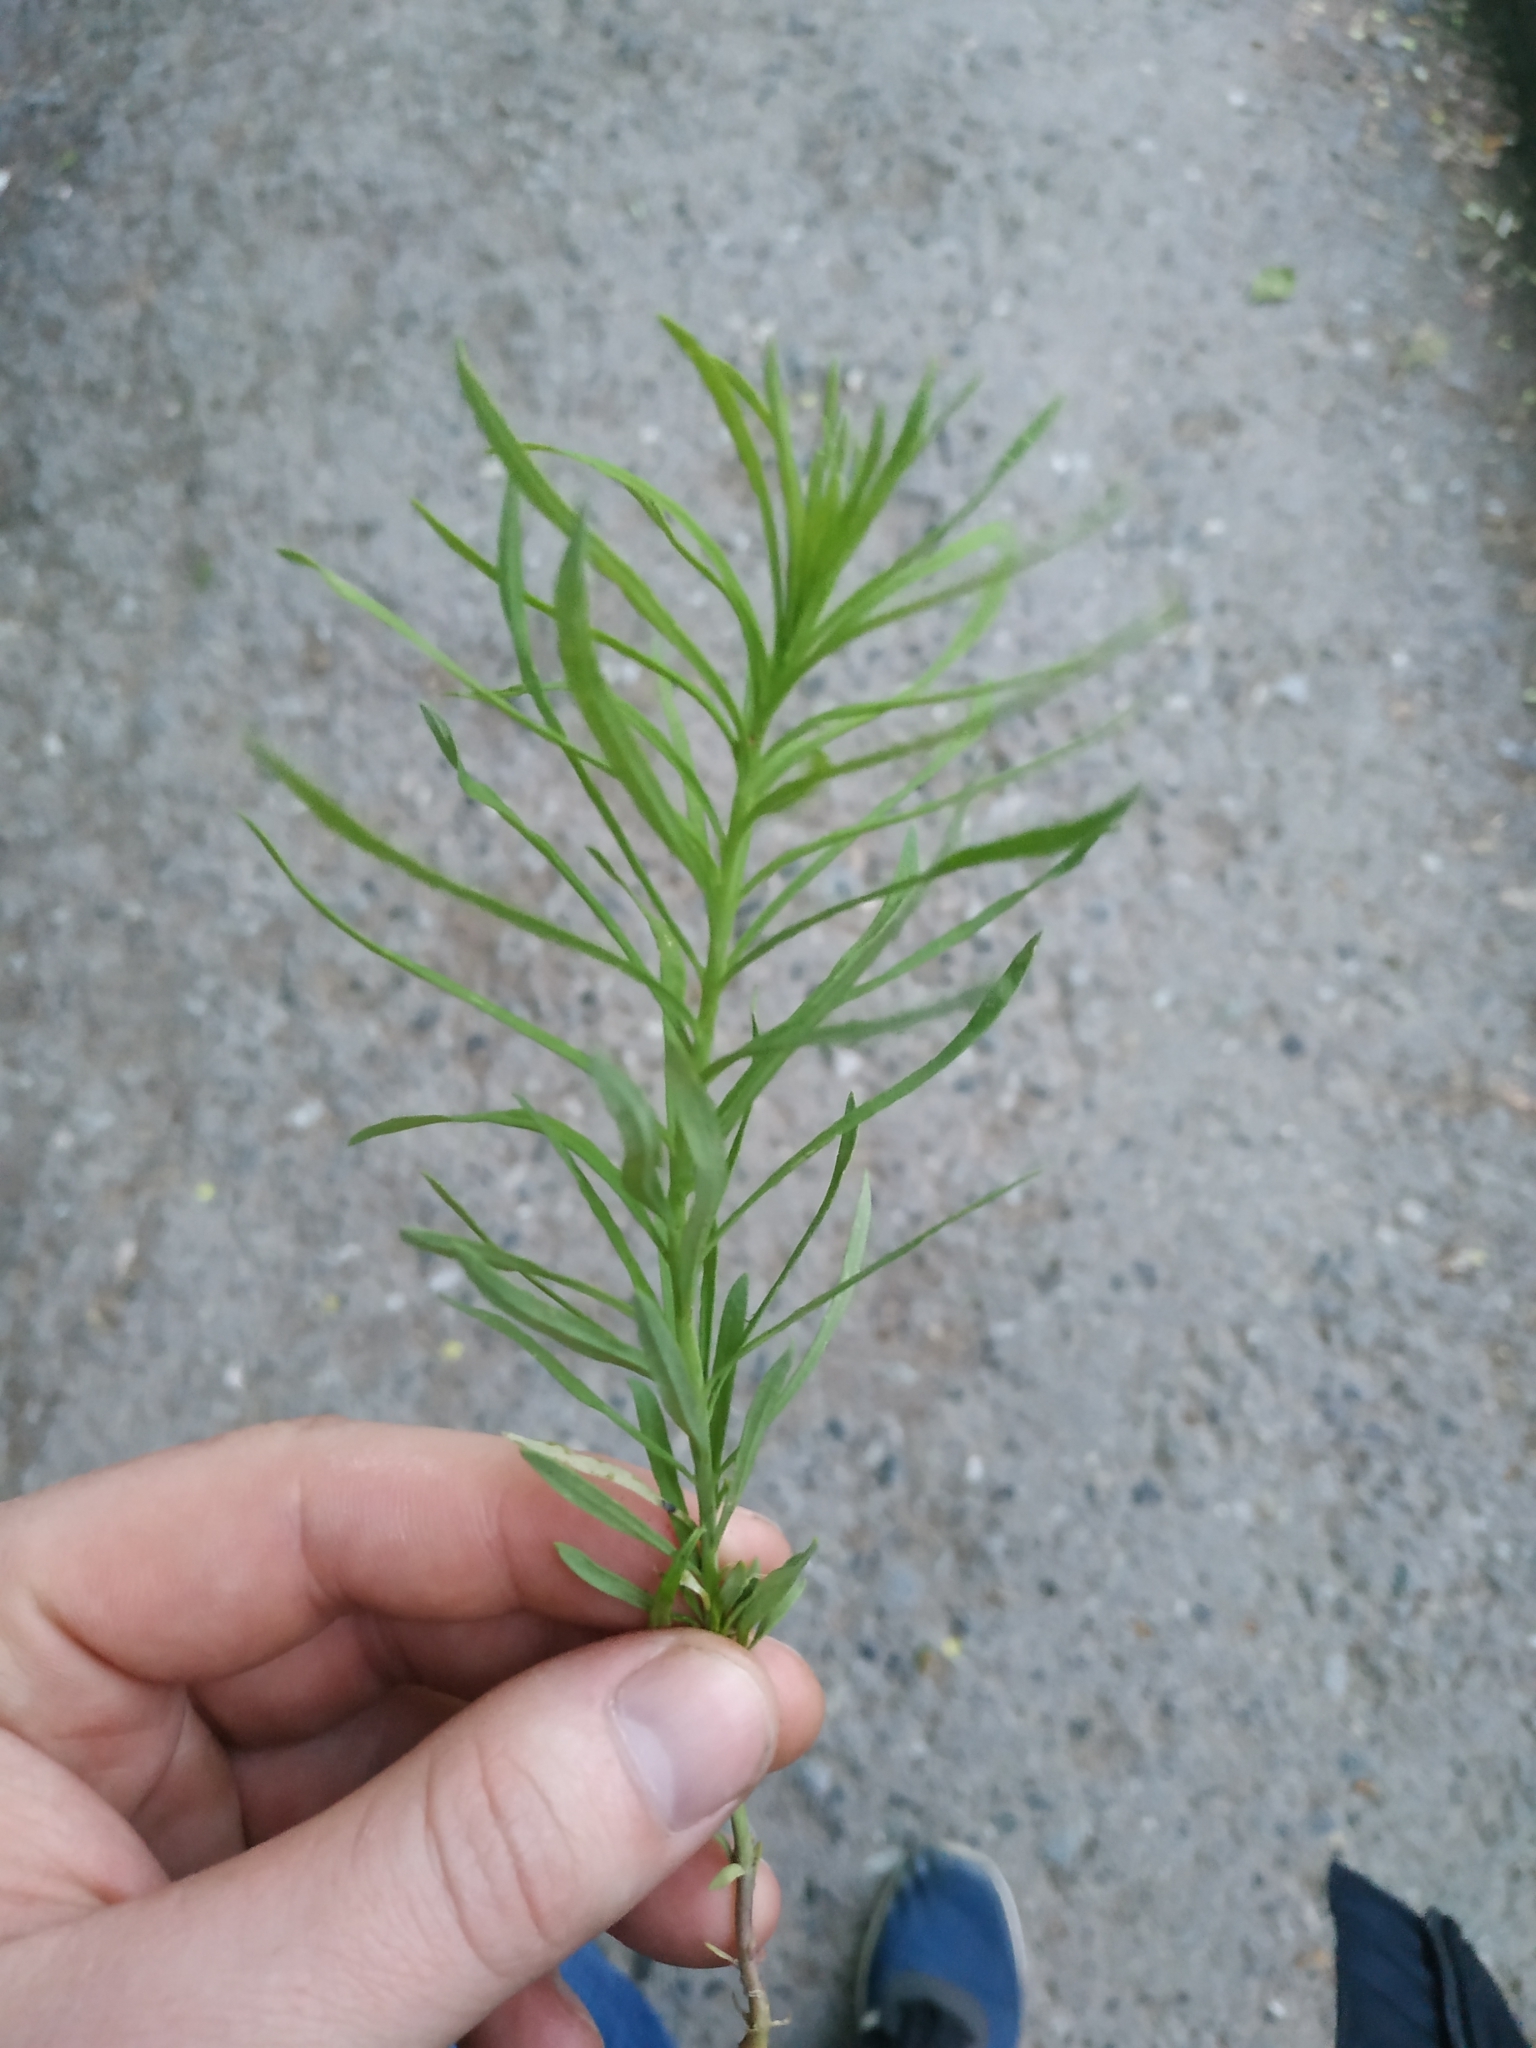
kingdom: Plantae
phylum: Tracheophyta
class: Magnoliopsida
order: Lamiales
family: Plantaginaceae
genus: Linaria
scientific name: Linaria vulgaris
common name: Butter and eggs
